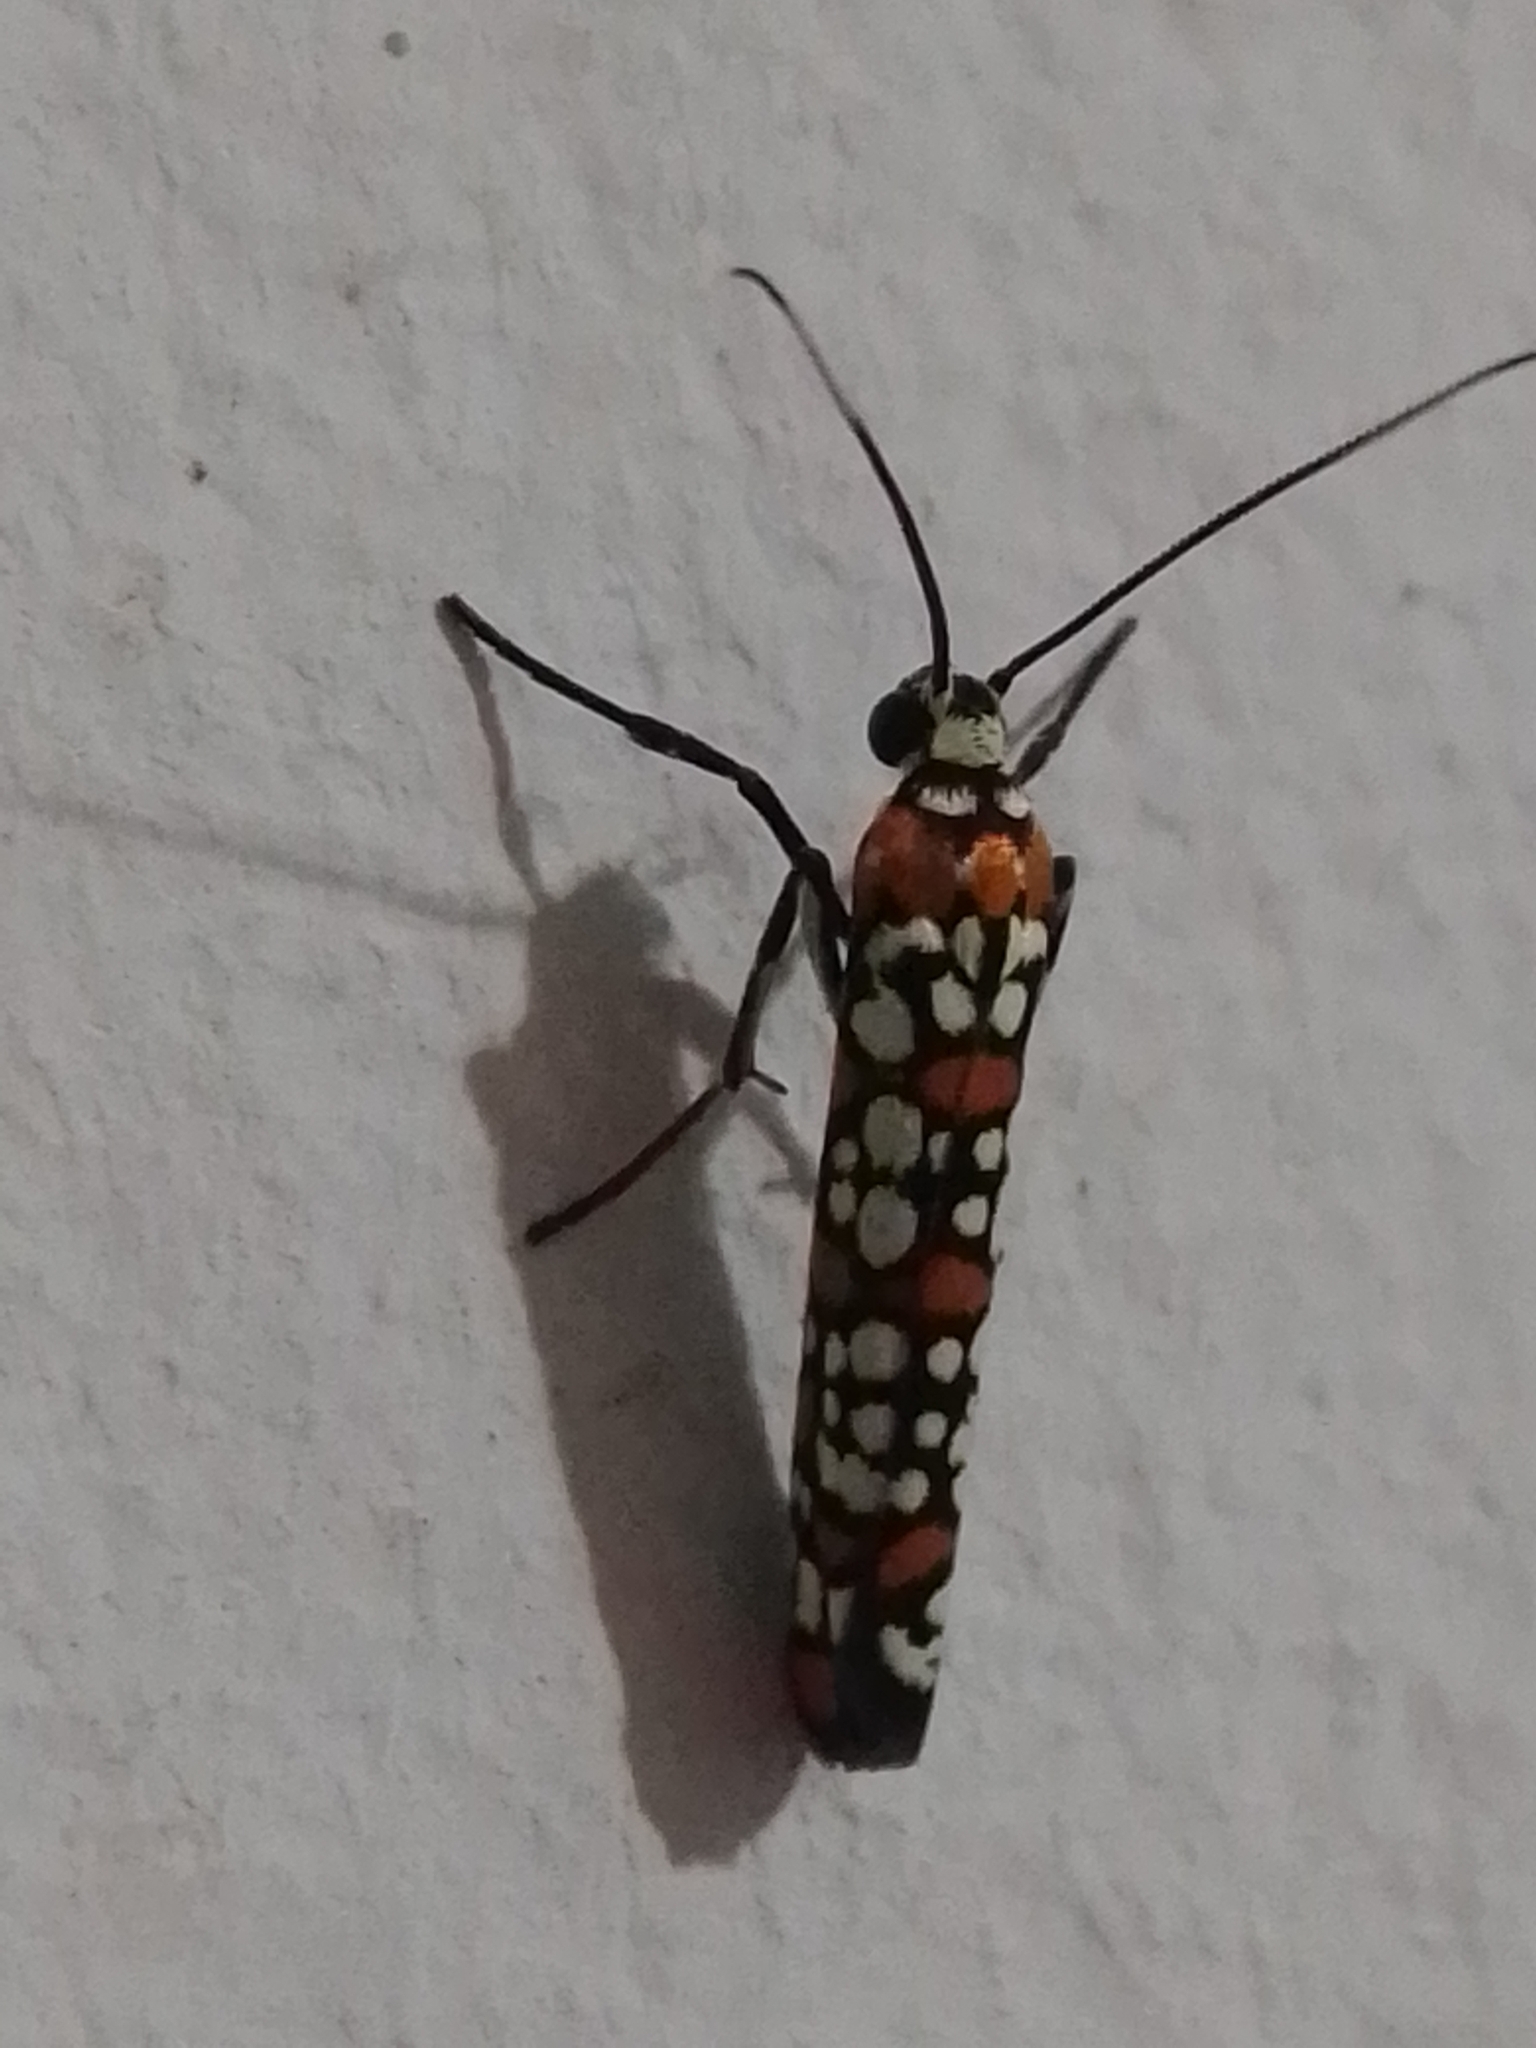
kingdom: Animalia
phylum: Arthropoda
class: Insecta
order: Lepidoptera
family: Attevidae
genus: Atteva
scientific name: Atteva punctella
